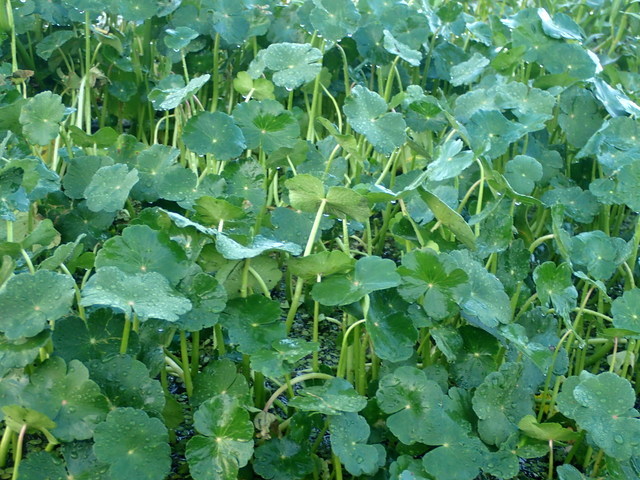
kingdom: Plantae
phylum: Tracheophyta
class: Magnoliopsida
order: Apiales
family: Araliaceae
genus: Hydrocotyle
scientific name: Hydrocotyle ranunculoides
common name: Floating pennywort
